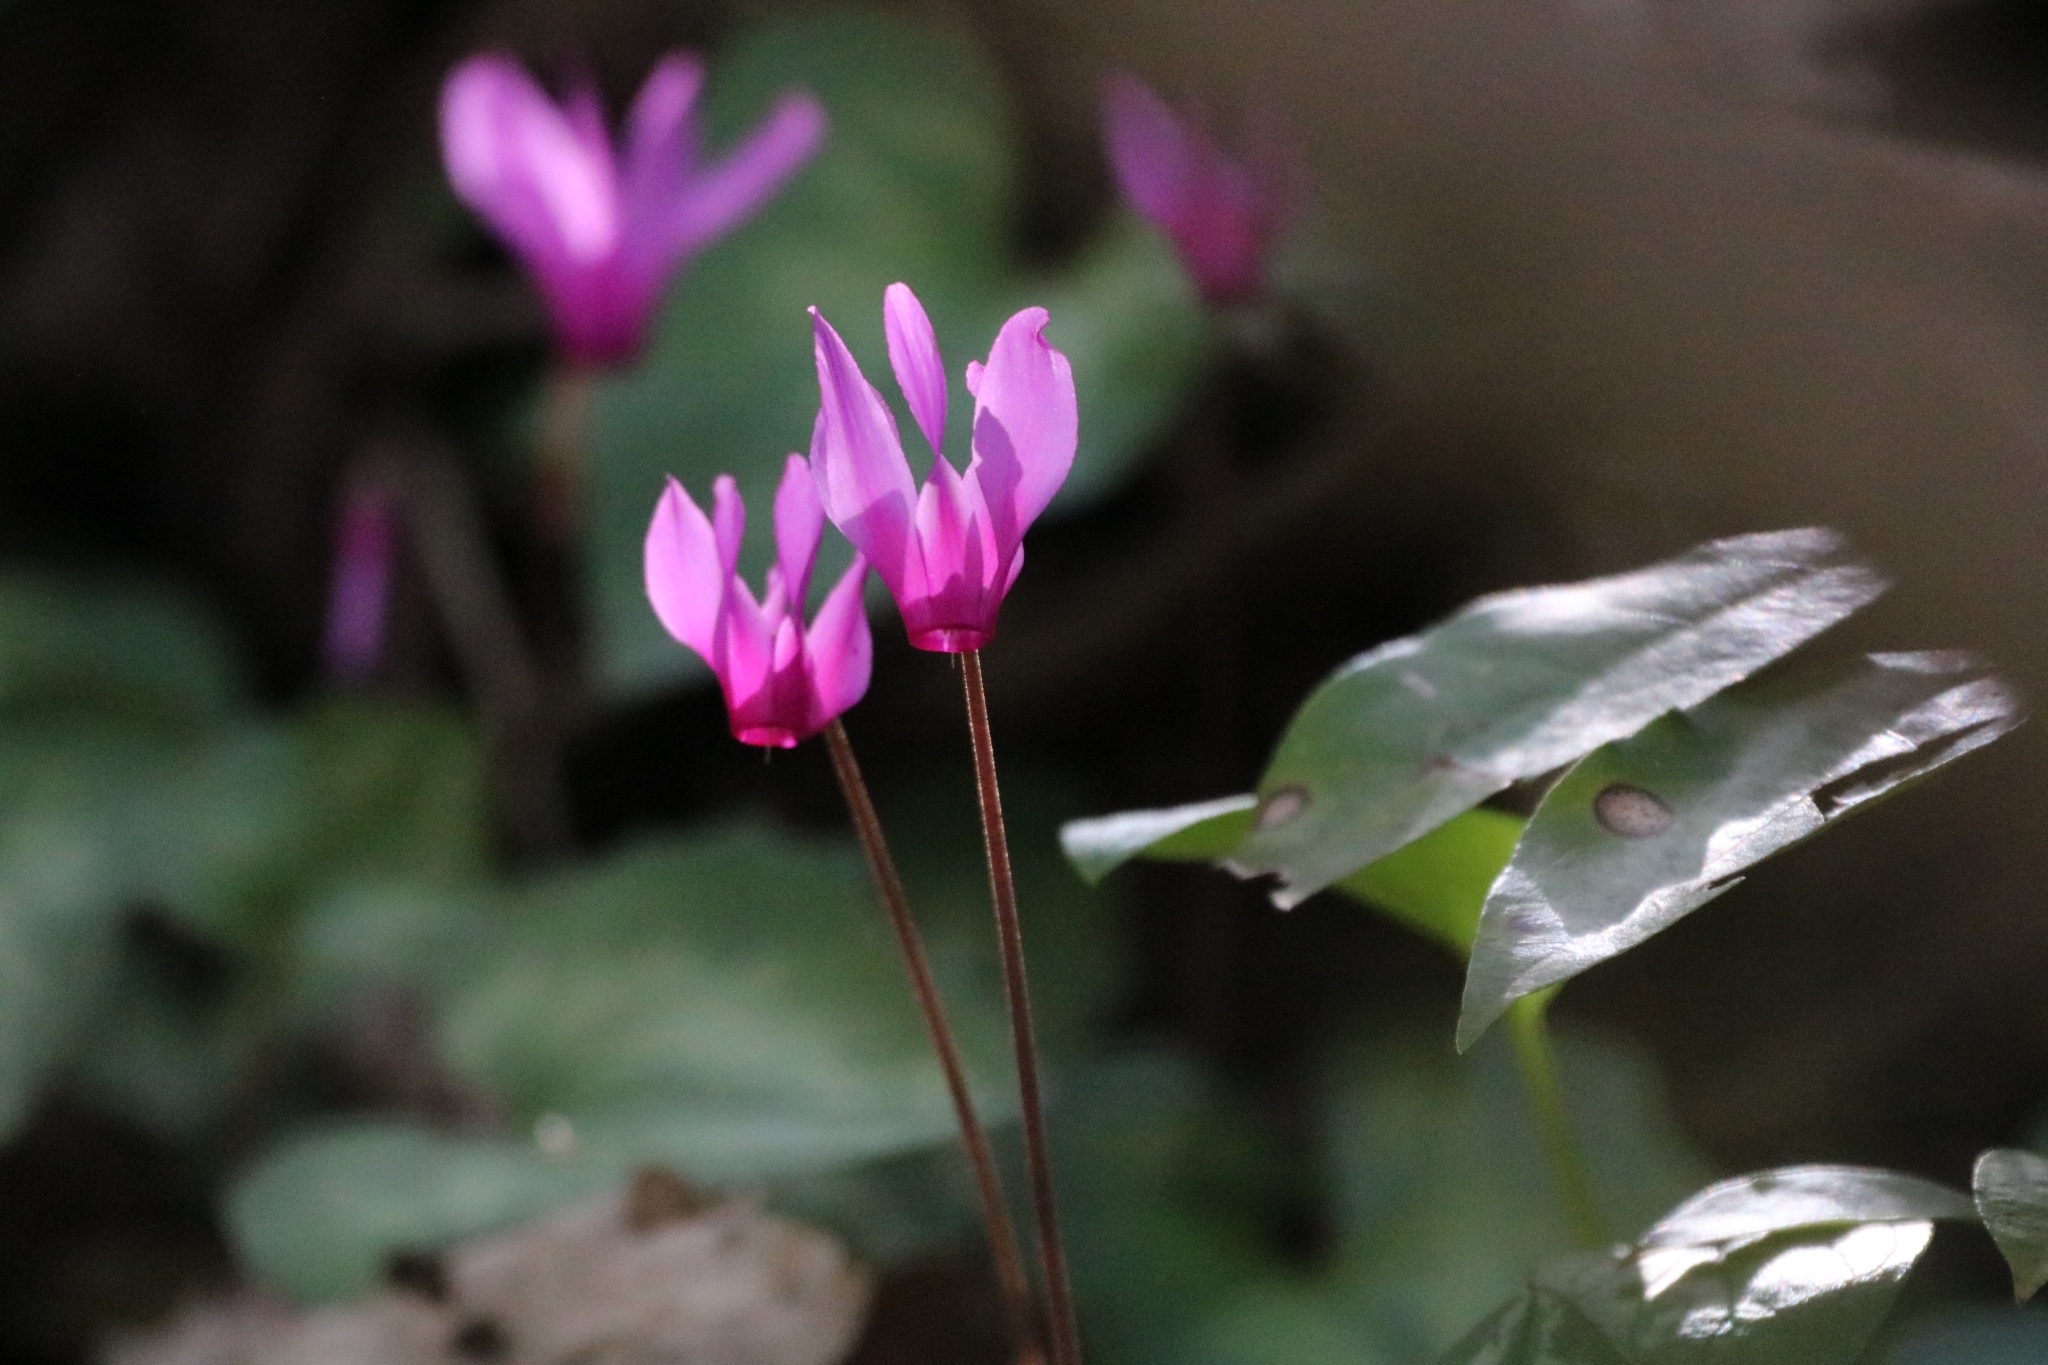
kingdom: Plantae
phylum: Tracheophyta
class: Magnoliopsida
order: Ericales
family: Primulaceae
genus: Cyclamen
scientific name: Cyclamen repandum
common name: Spring sowbread
